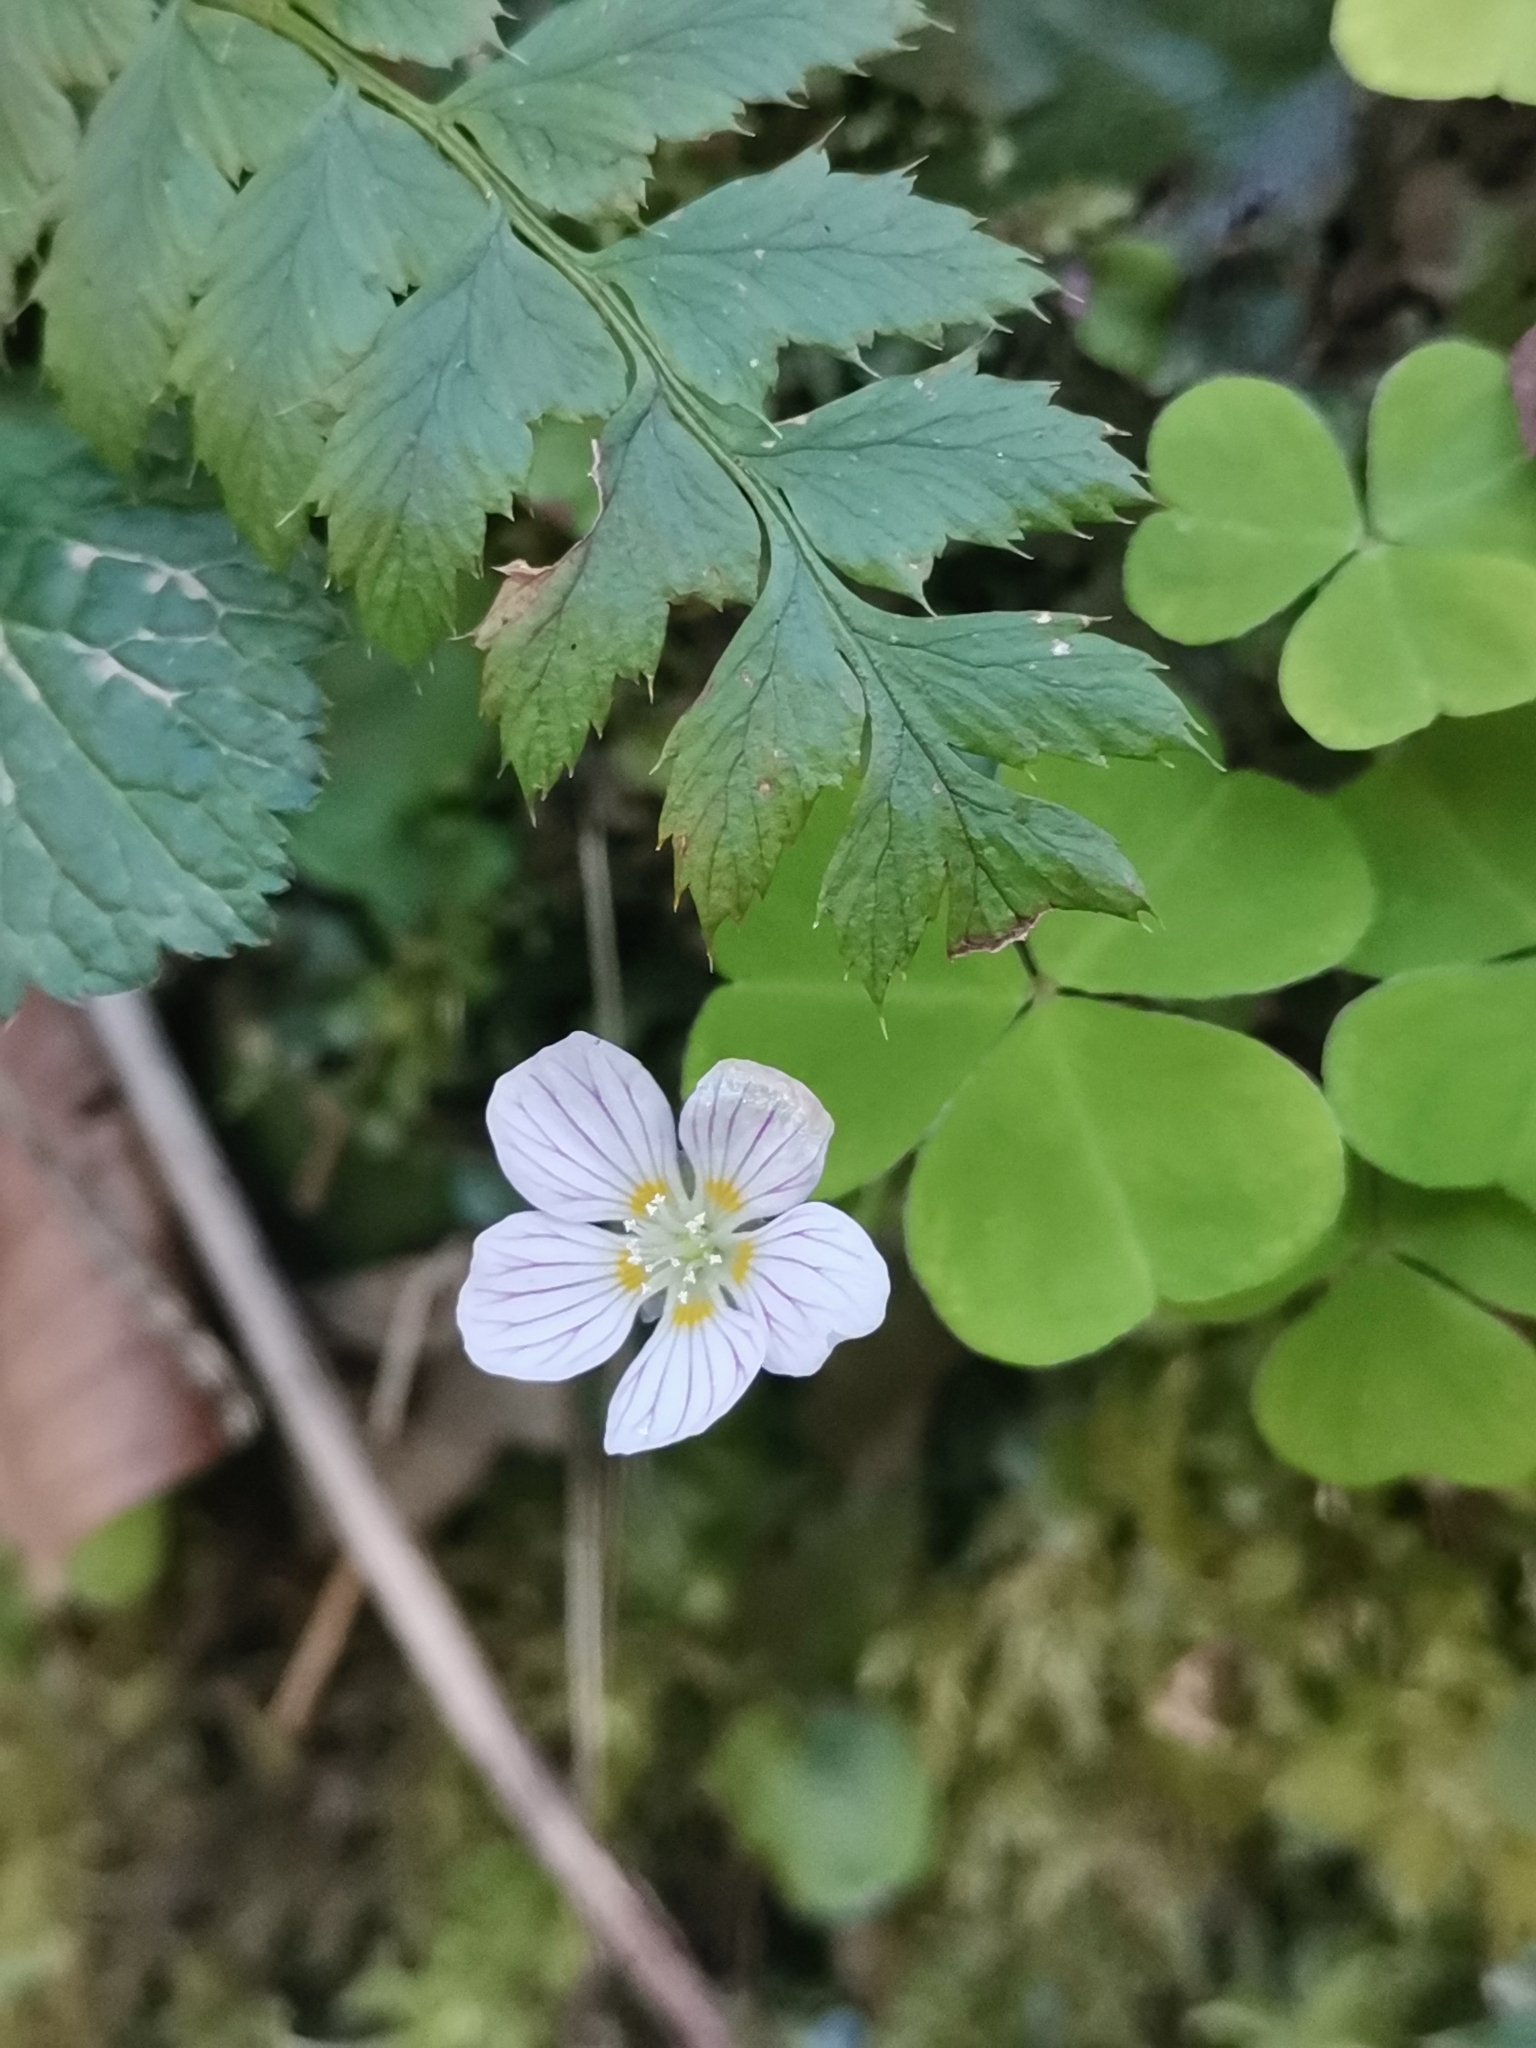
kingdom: Plantae
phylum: Tracheophyta
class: Magnoliopsida
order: Oxalidales
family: Oxalidaceae
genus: Oxalis
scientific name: Oxalis acetosella
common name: Wood-sorrel
